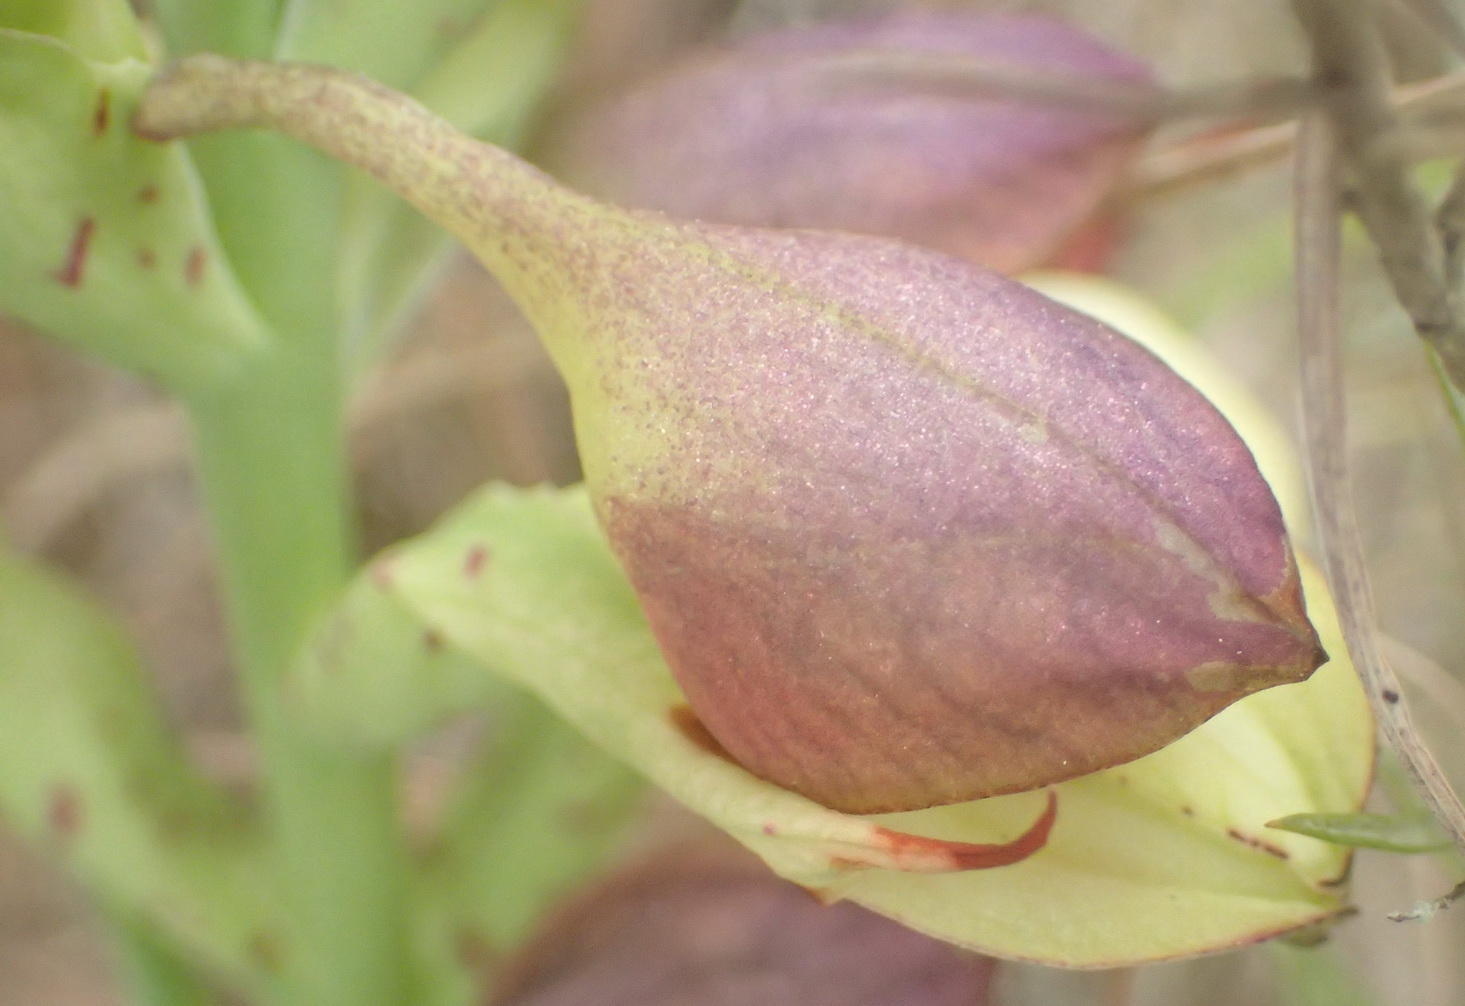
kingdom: Plantae
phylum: Tracheophyta
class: Liliopsida
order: Asparagales
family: Orchidaceae
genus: Disa
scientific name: Disa cornuta
